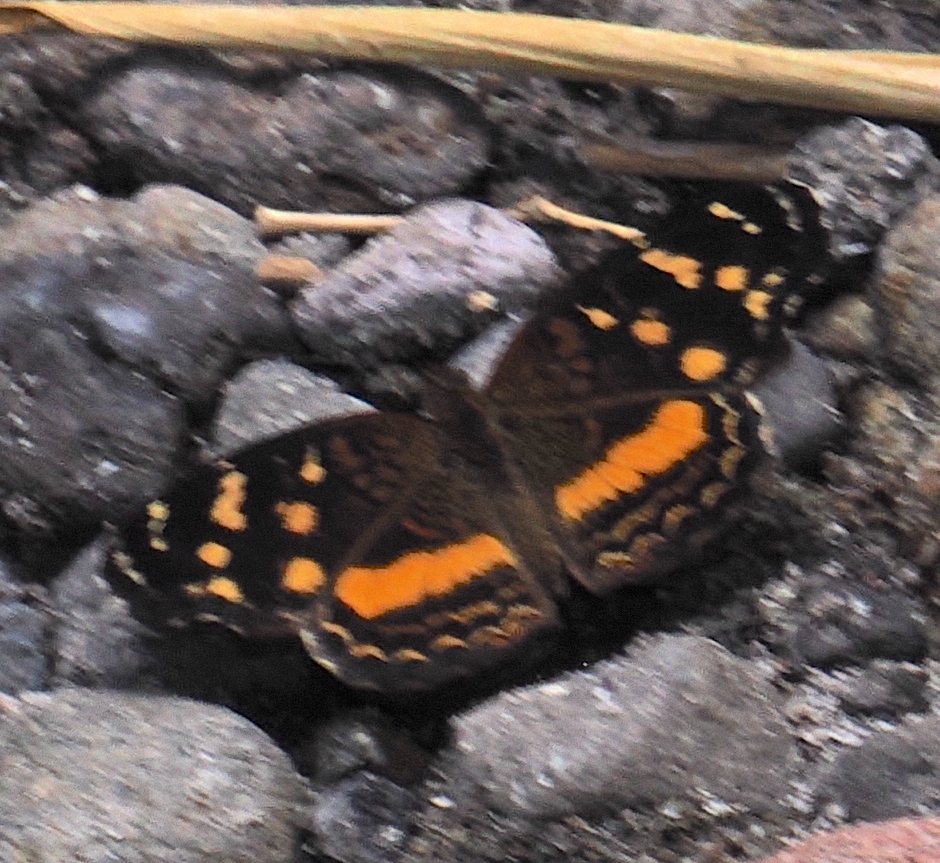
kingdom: Animalia
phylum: Arthropoda
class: Insecta
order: Lepidoptera
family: Nymphalidae
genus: Anthanassa
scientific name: Anthanassa drusilla
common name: Orange-patched crescent
